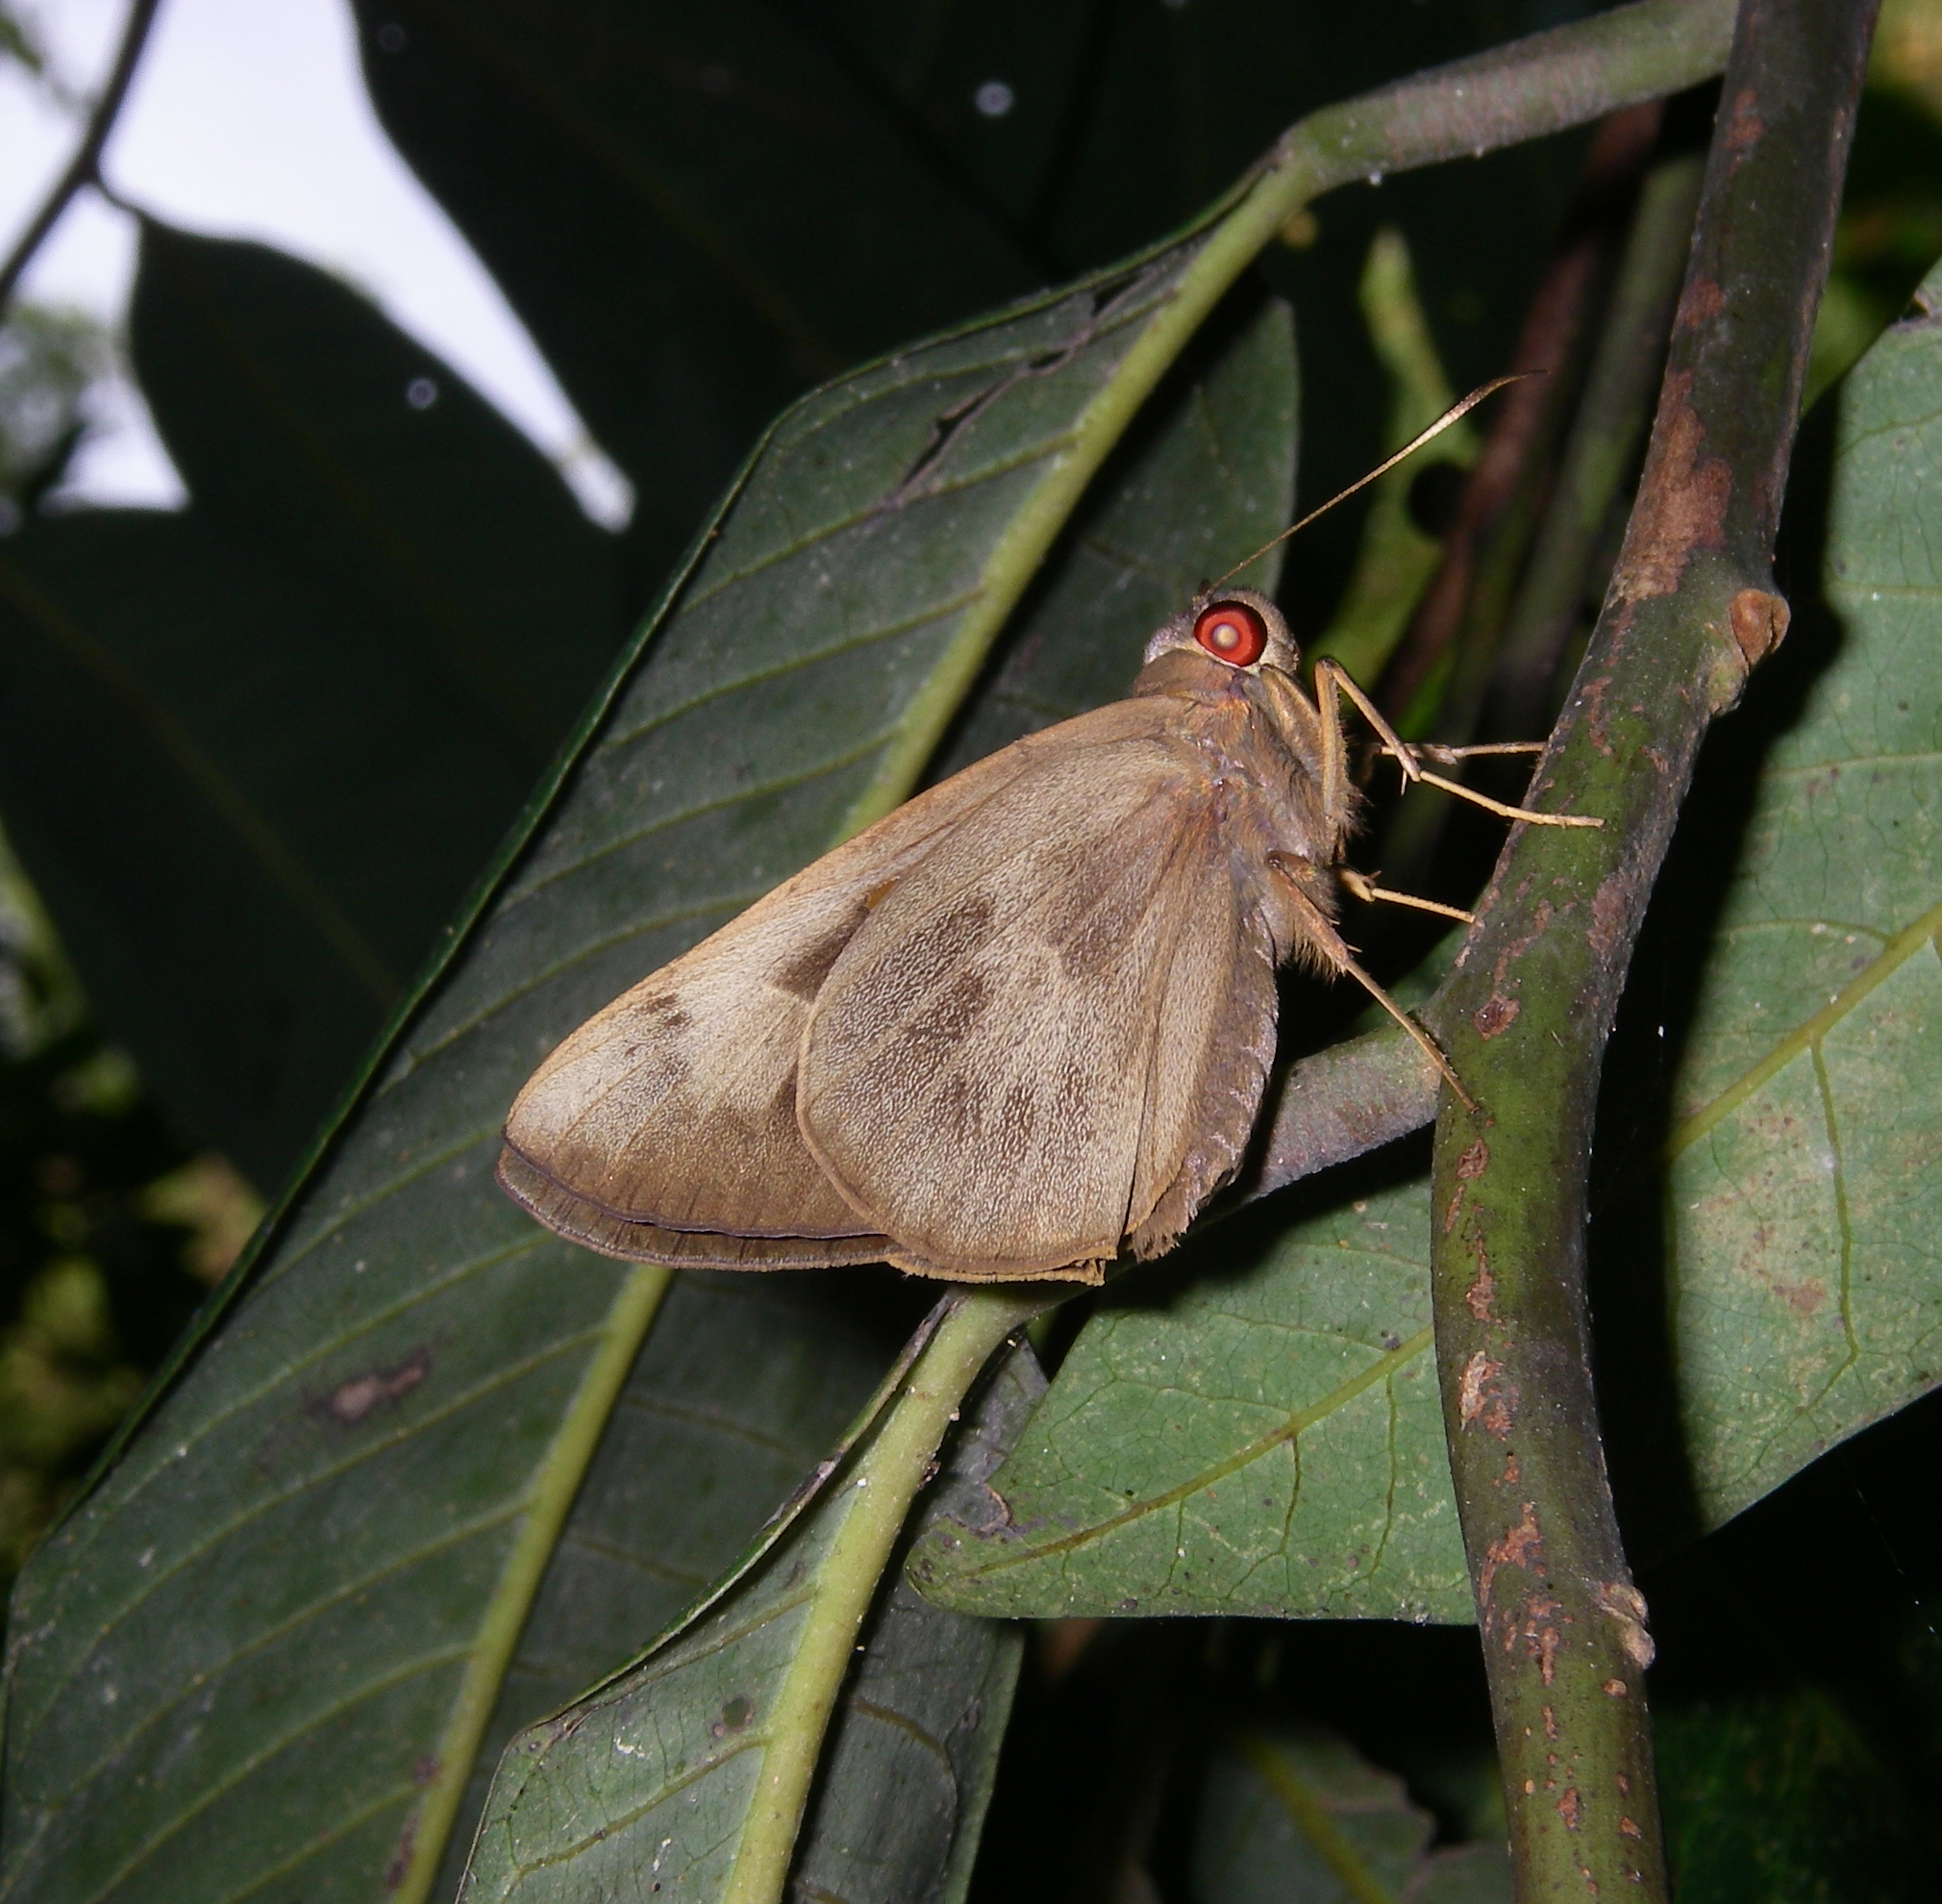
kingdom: Animalia
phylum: Arthropoda
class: Insecta
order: Lepidoptera
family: Hesperiidae
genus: Erionota
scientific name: Erionota torus
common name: Rounded palm-redeye
